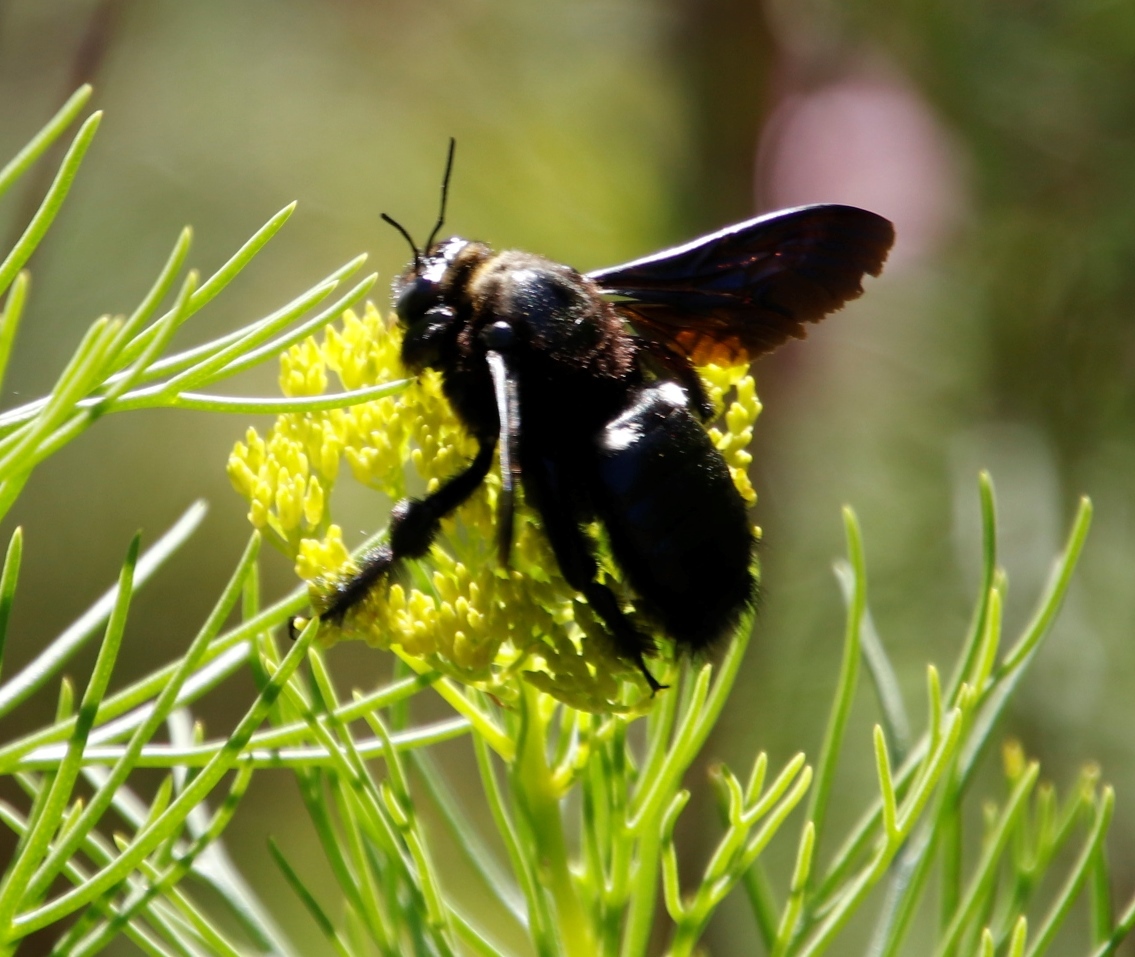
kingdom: Animalia
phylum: Arthropoda
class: Insecta
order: Hymenoptera
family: Apidae
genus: Xylocopa
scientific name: Xylocopa capitata
